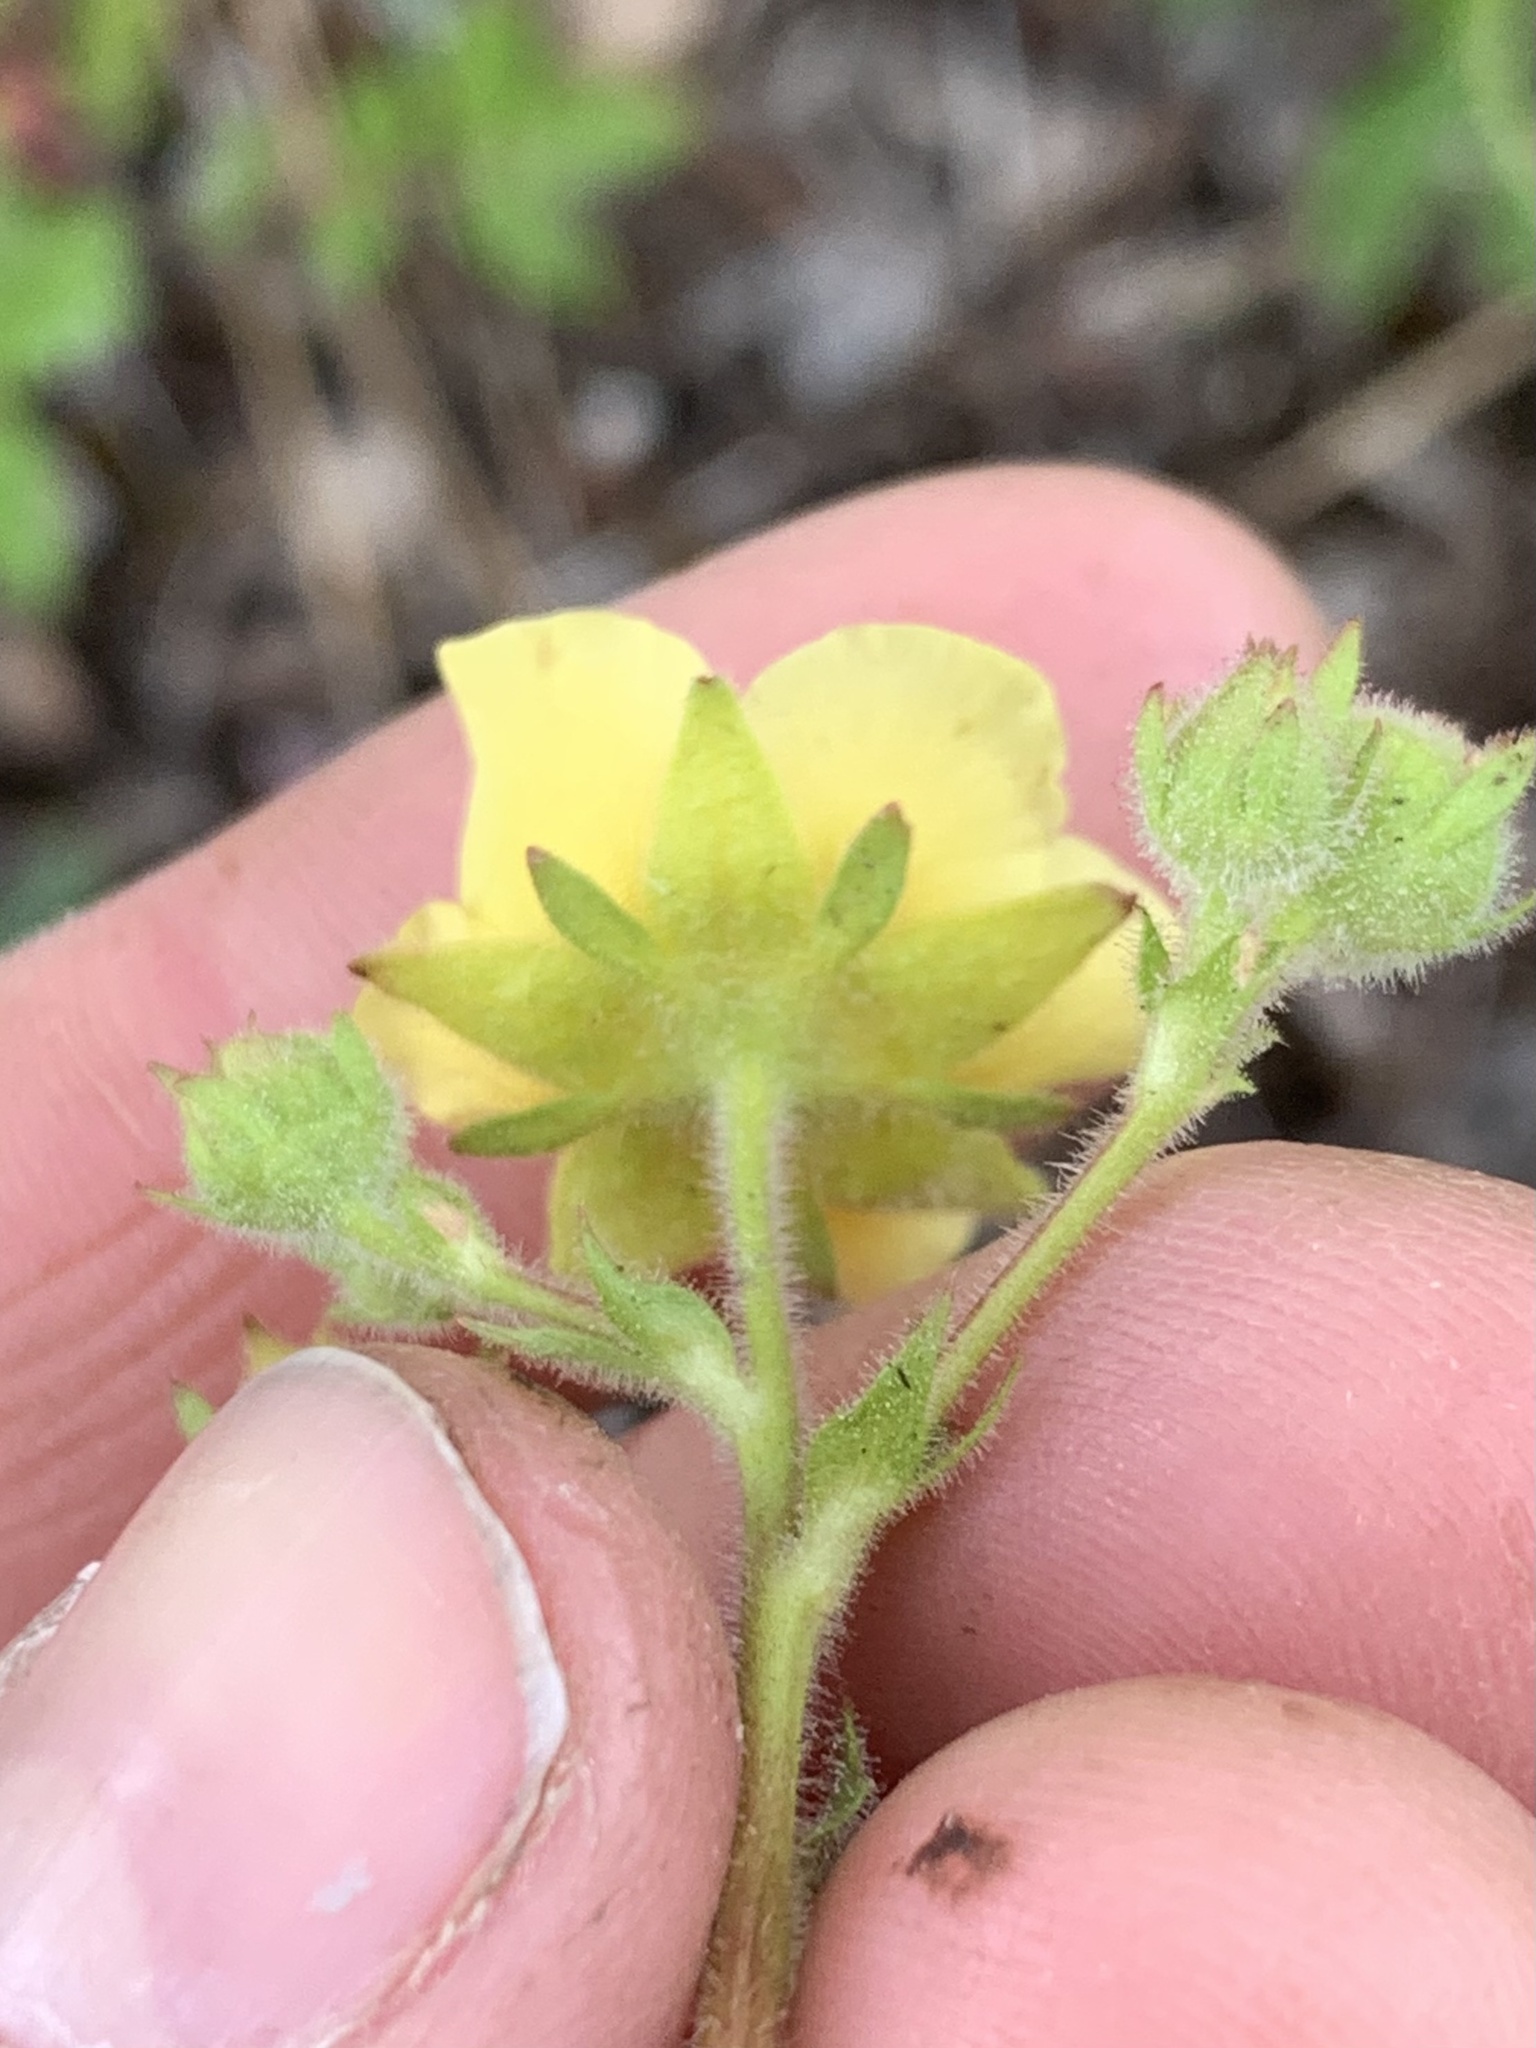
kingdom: Plantae
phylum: Tracheophyta
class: Magnoliopsida
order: Rosales
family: Rosaceae
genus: Drymocallis
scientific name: Drymocallis glandulosa
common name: Sticky cinquefoil
